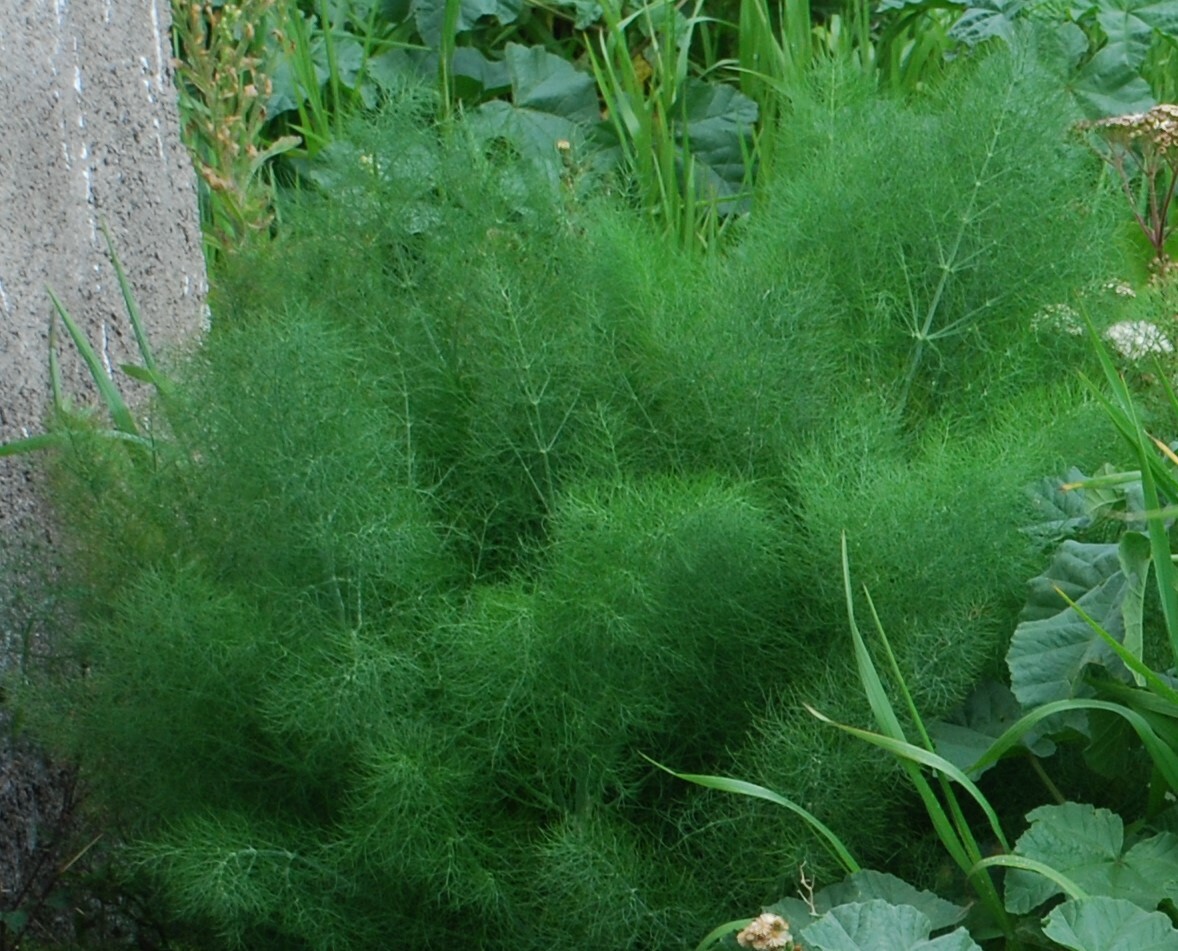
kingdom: Plantae
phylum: Tracheophyta
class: Magnoliopsida
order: Apiales
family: Apiaceae
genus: Foeniculum
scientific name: Foeniculum vulgare
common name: Fennel
